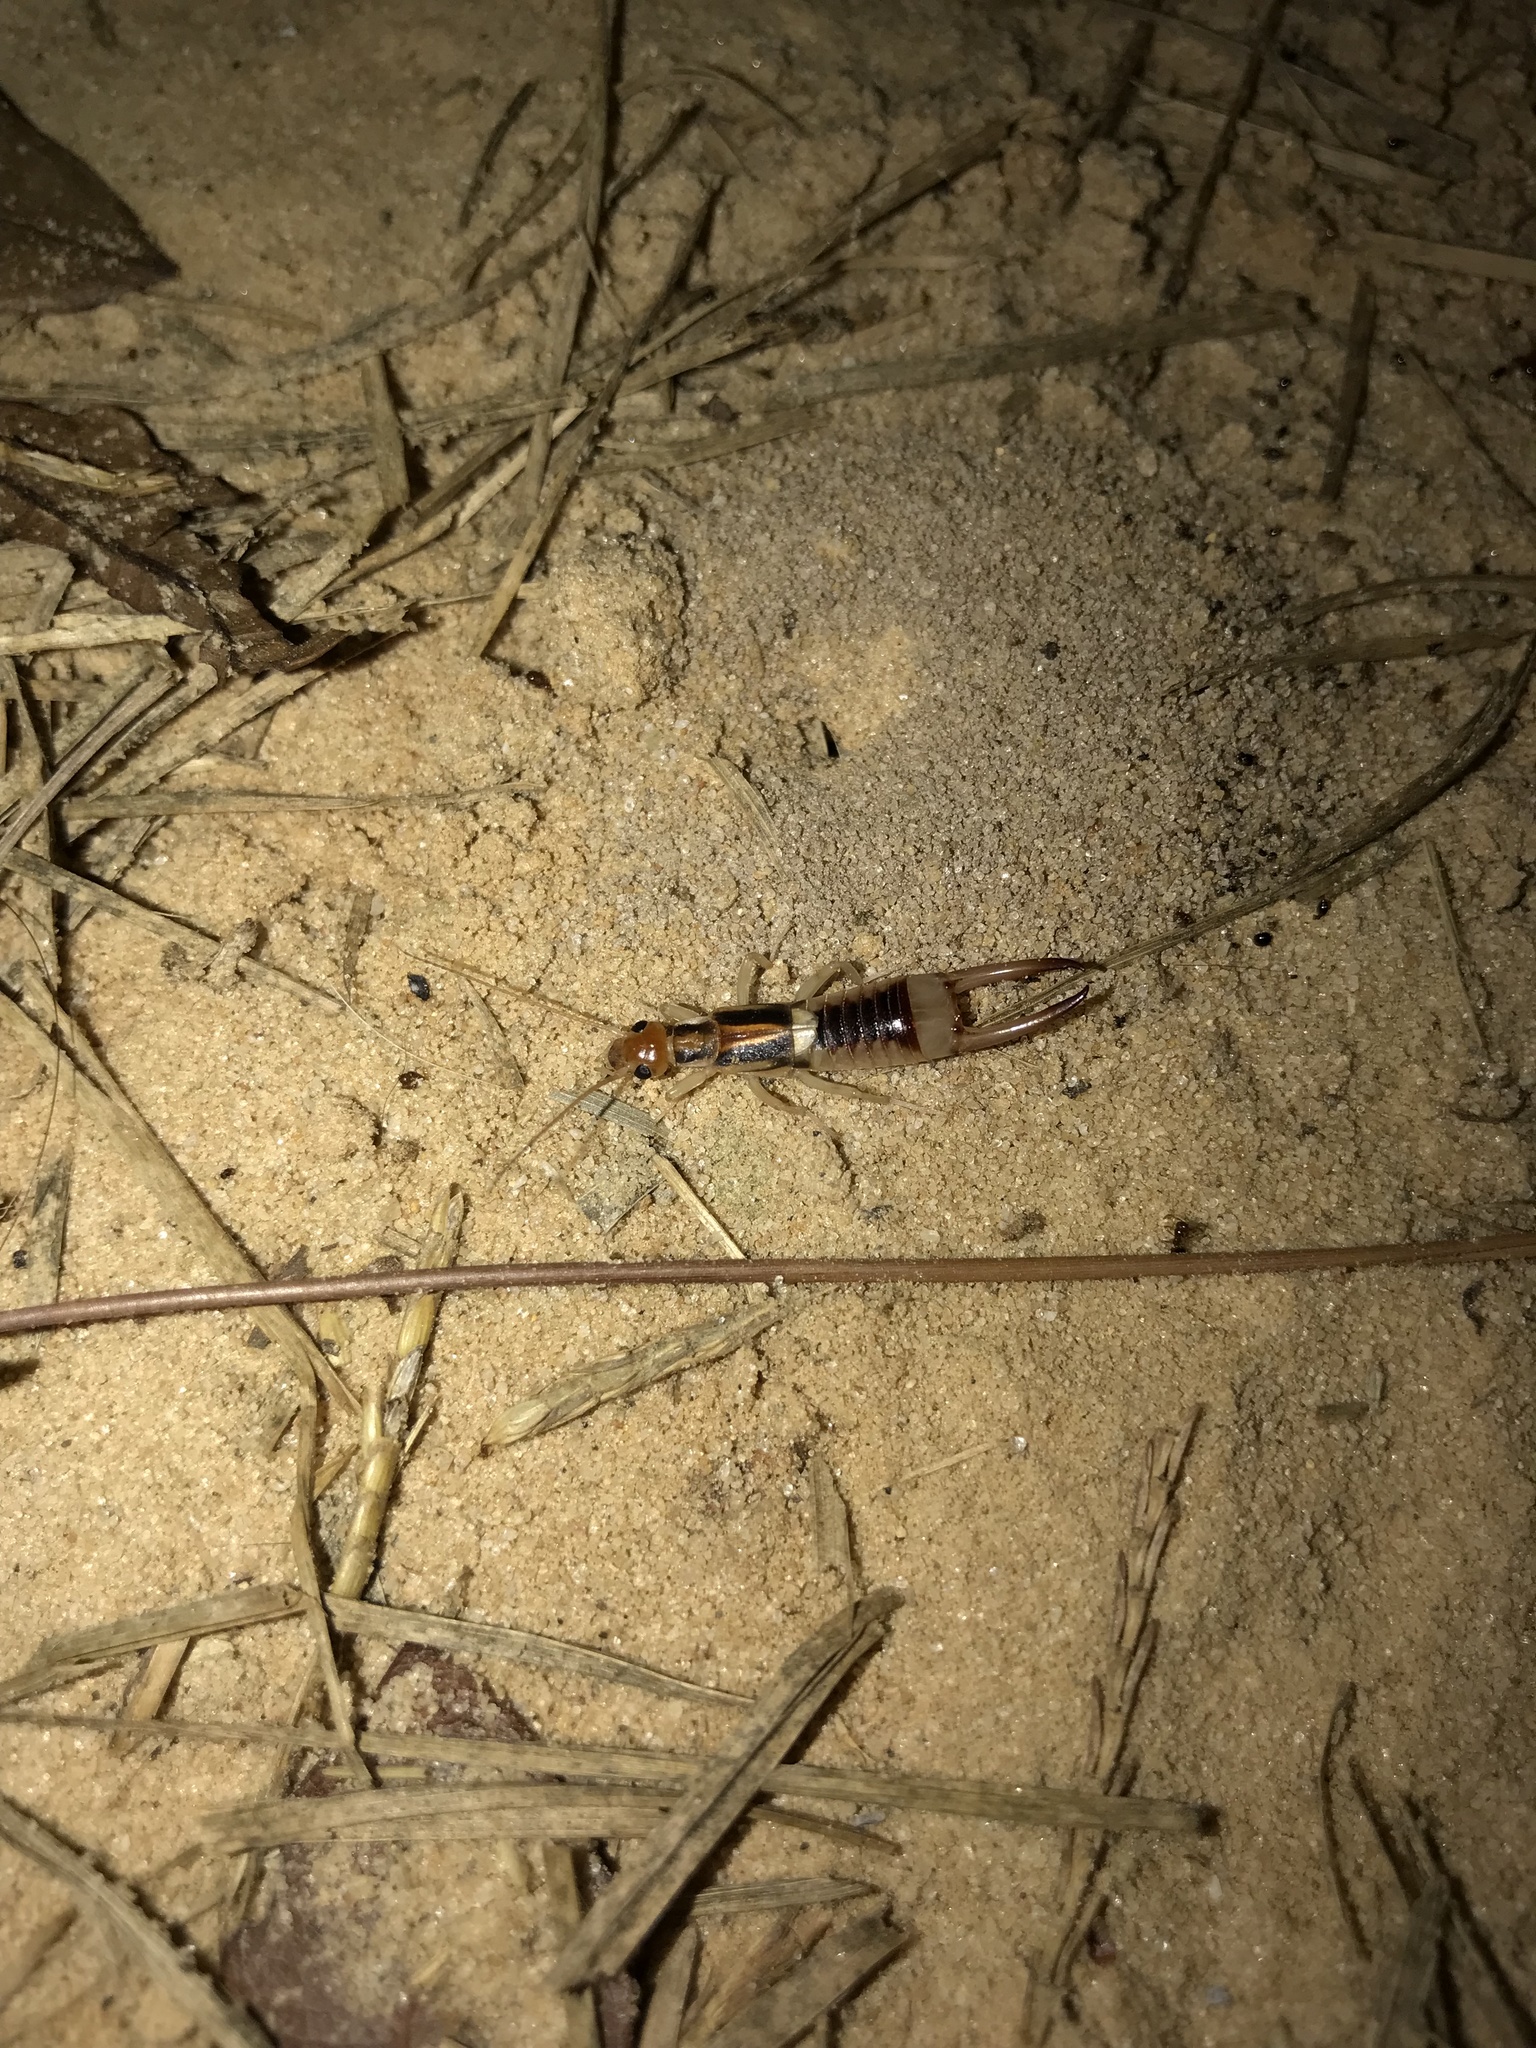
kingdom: Animalia
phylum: Arthropoda
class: Insecta
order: Dermaptera
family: Labiduridae
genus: Labidura
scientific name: Labidura riparia
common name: Striped earwig
